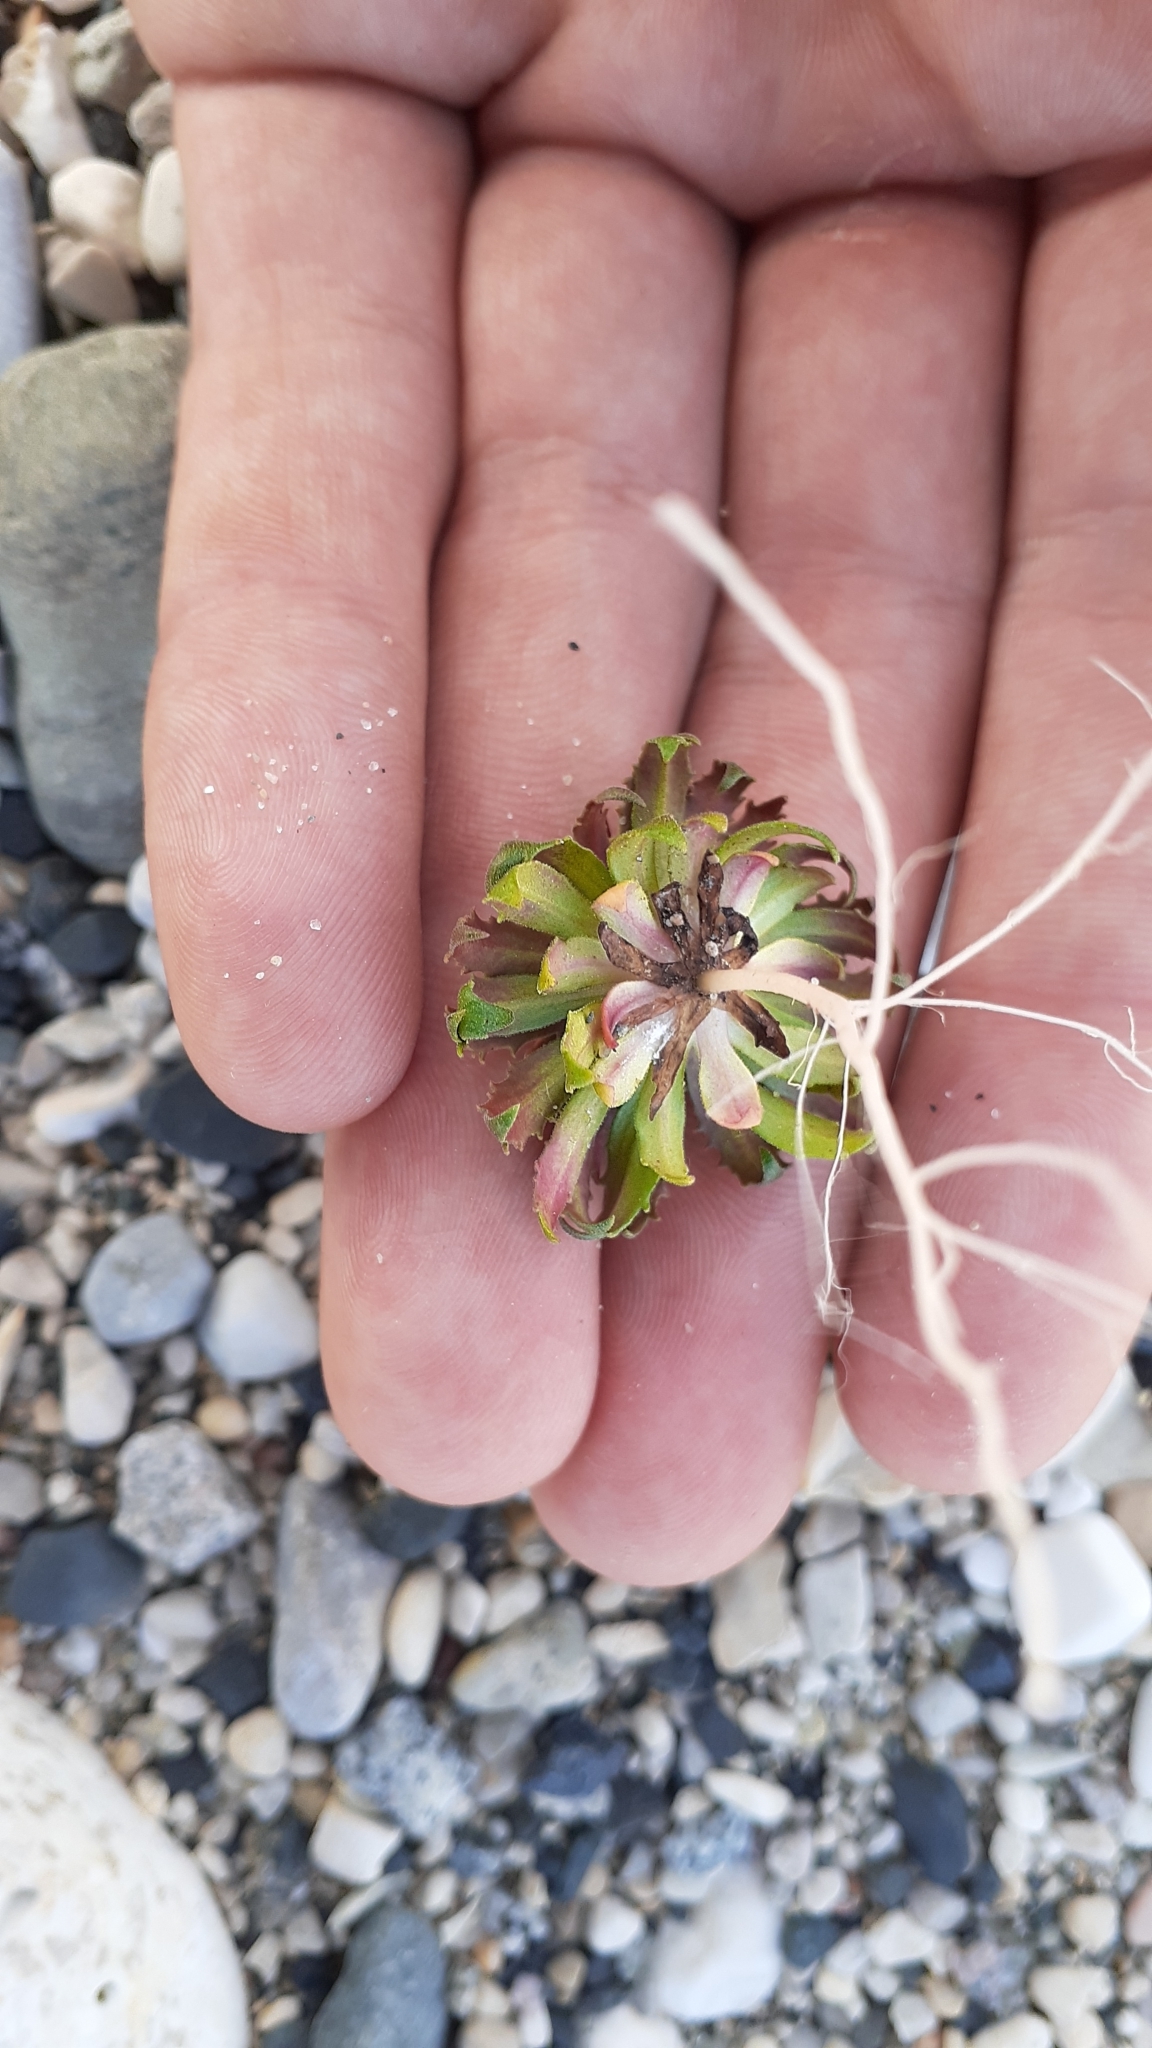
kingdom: Plantae
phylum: Tracheophyta
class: Magnoliopsida
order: Ericales
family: Primulaceae
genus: Androsace
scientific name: Androsace septentrionalis
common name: Hairy northern fairy-candelabra
